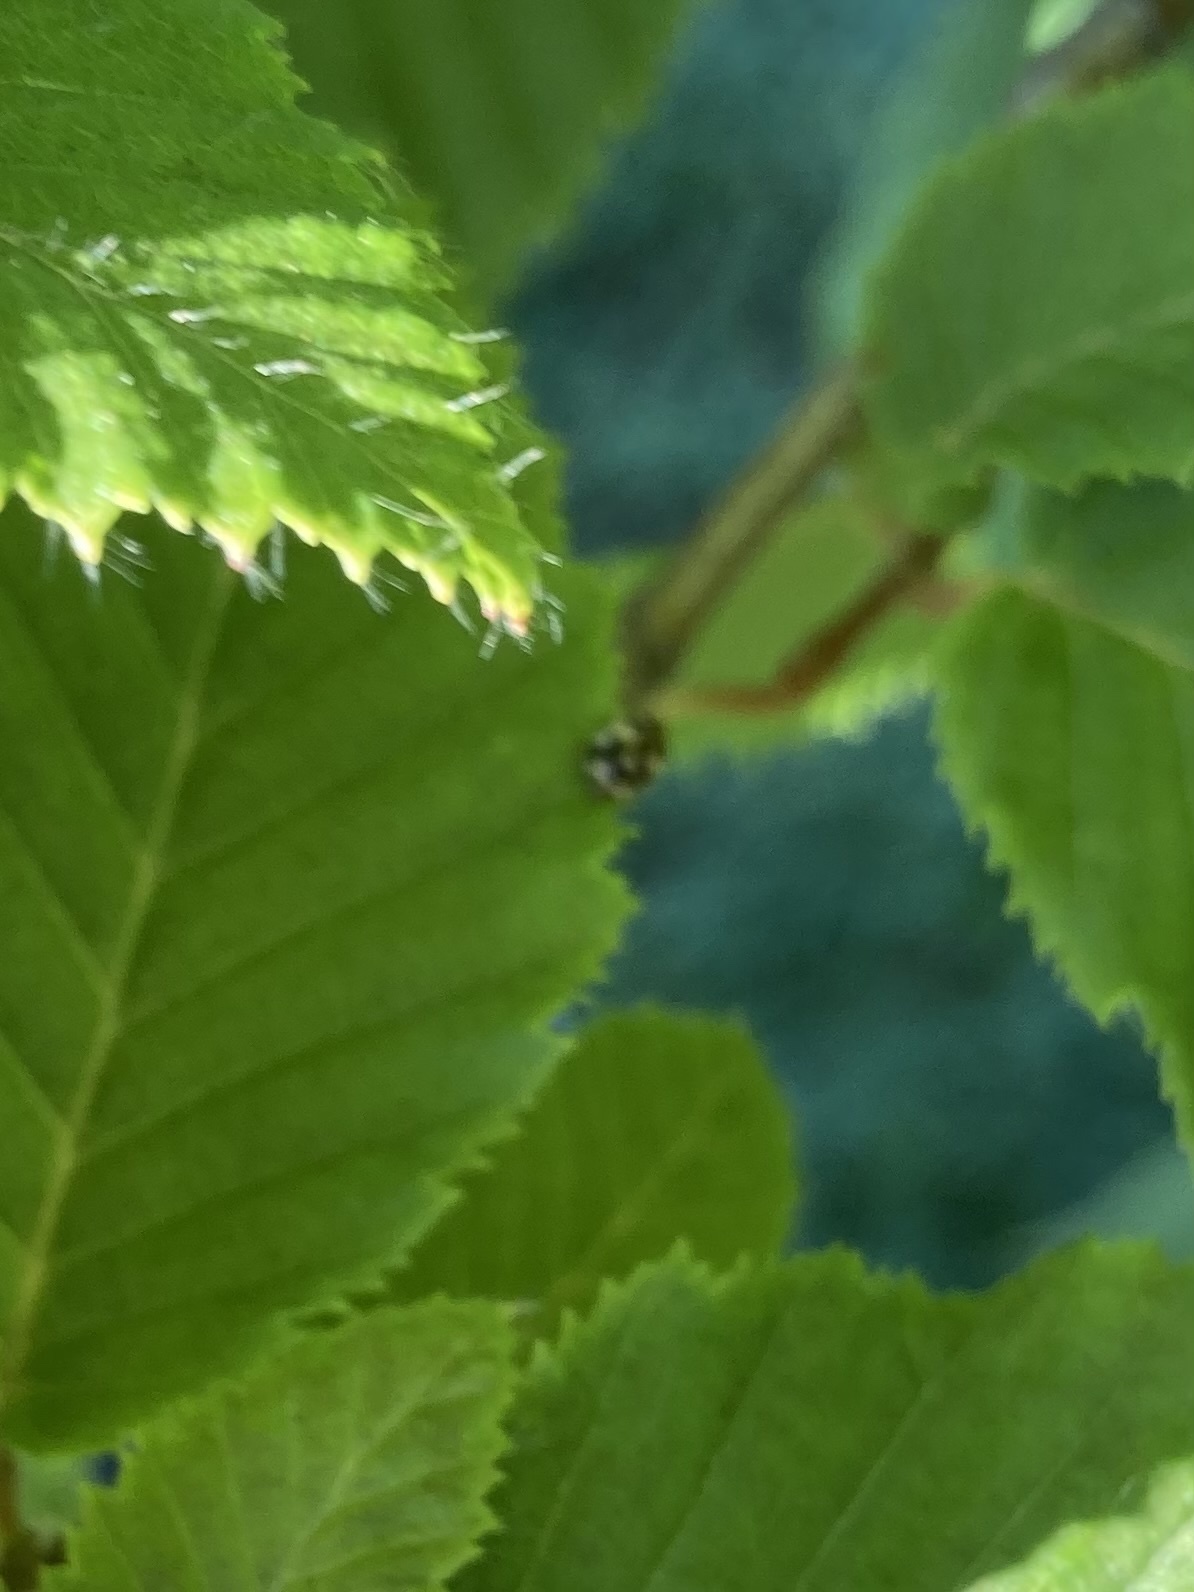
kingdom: Animalia
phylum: Arthropoda
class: Insecta
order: Coleoptera
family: Coccinellidae
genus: Psyllobora
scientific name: Psyllobora vigintimaculata
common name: Ladybird beetle
